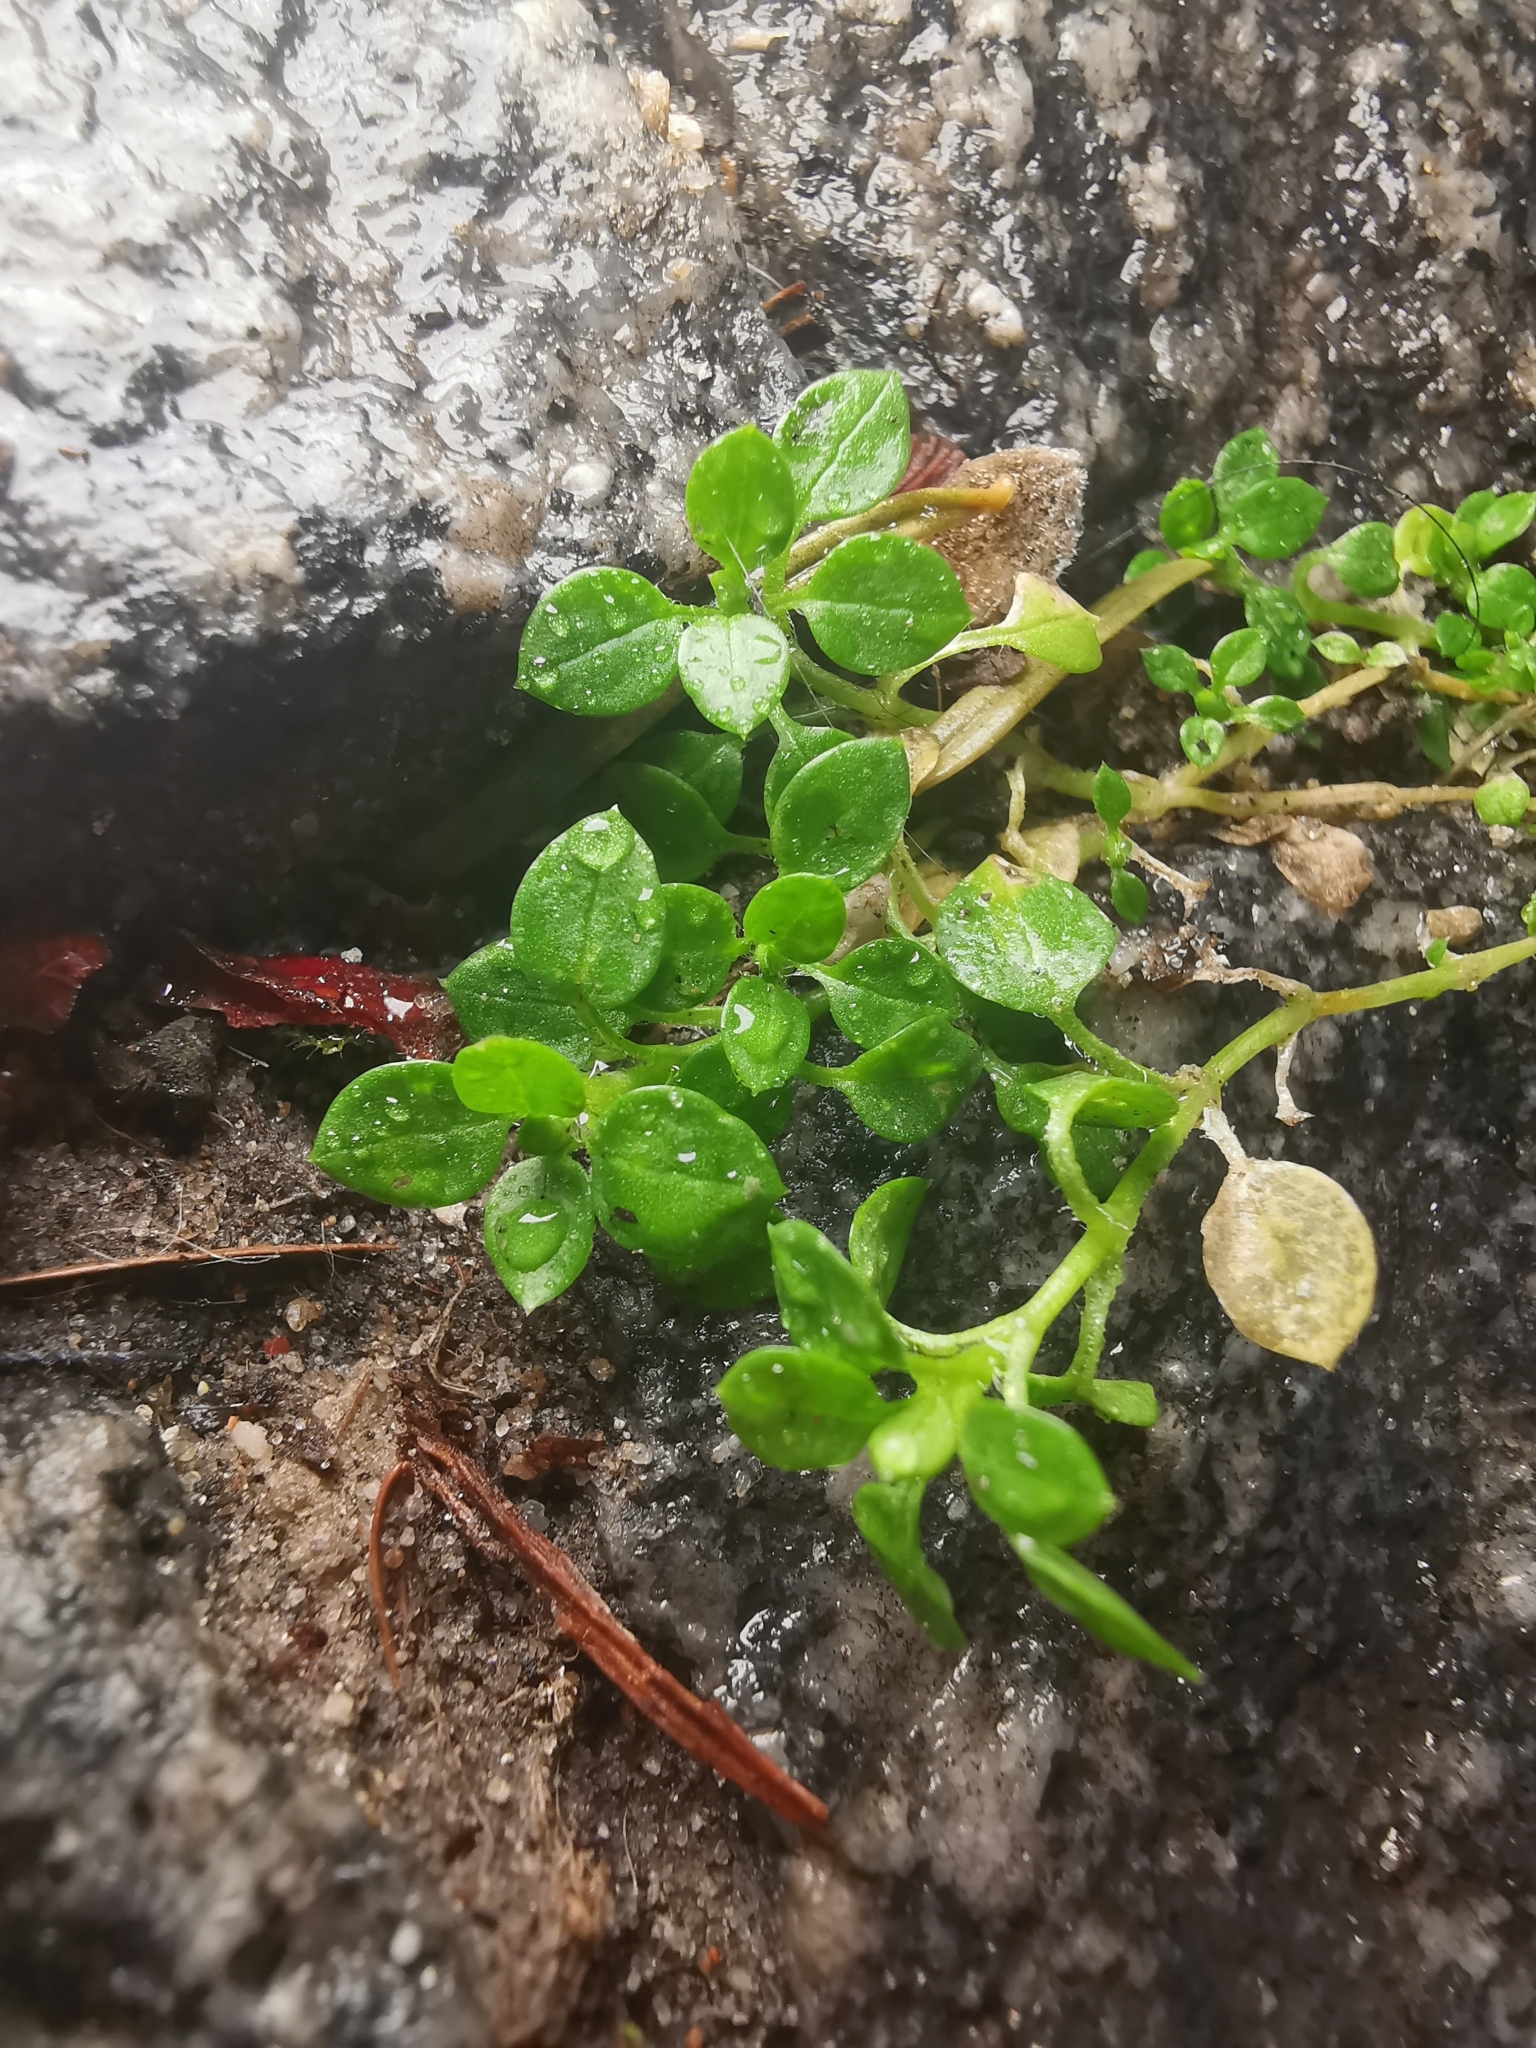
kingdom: Plantae
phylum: Tracheophyta
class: Magnoliopsida
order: Caryophyllales
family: Caryophyllaceae
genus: Stellaria
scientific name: Stellaria media
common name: Common chickweed
